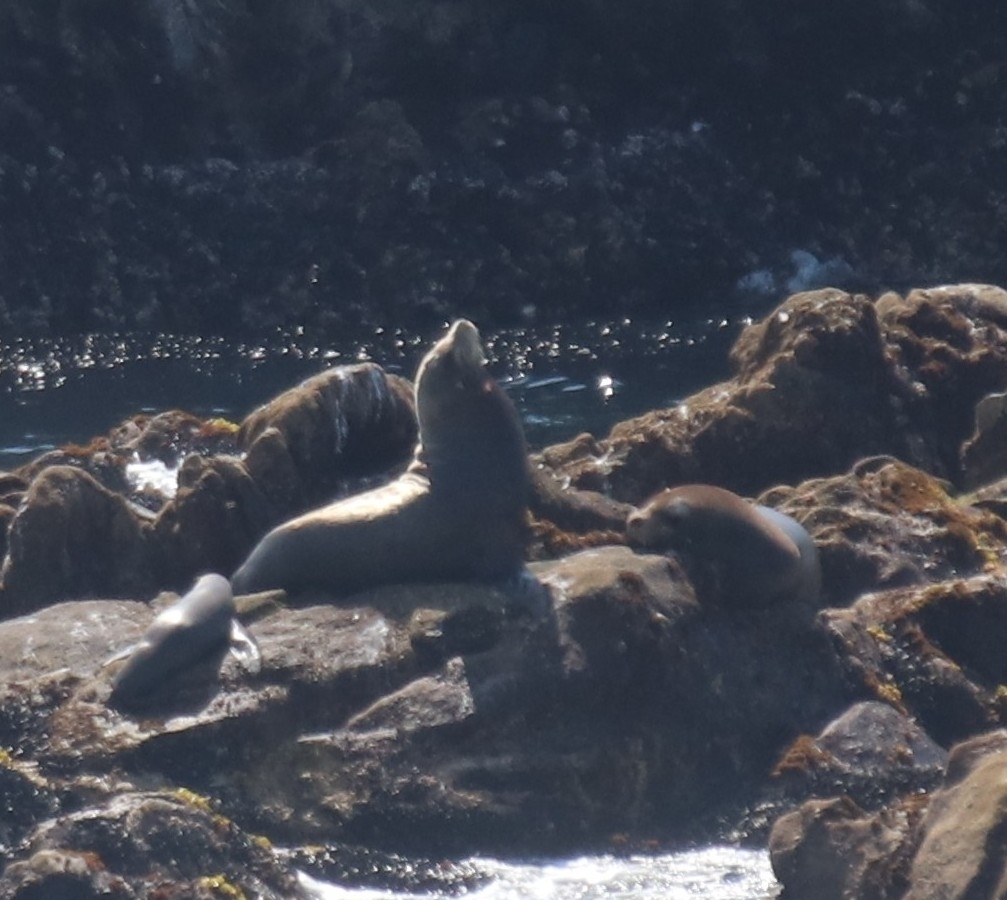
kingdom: Animalia
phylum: Chordata
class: Mammalia
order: Carnivora
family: Otariidae
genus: Zalophus
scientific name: Zalophus californianus
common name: California sea lion
